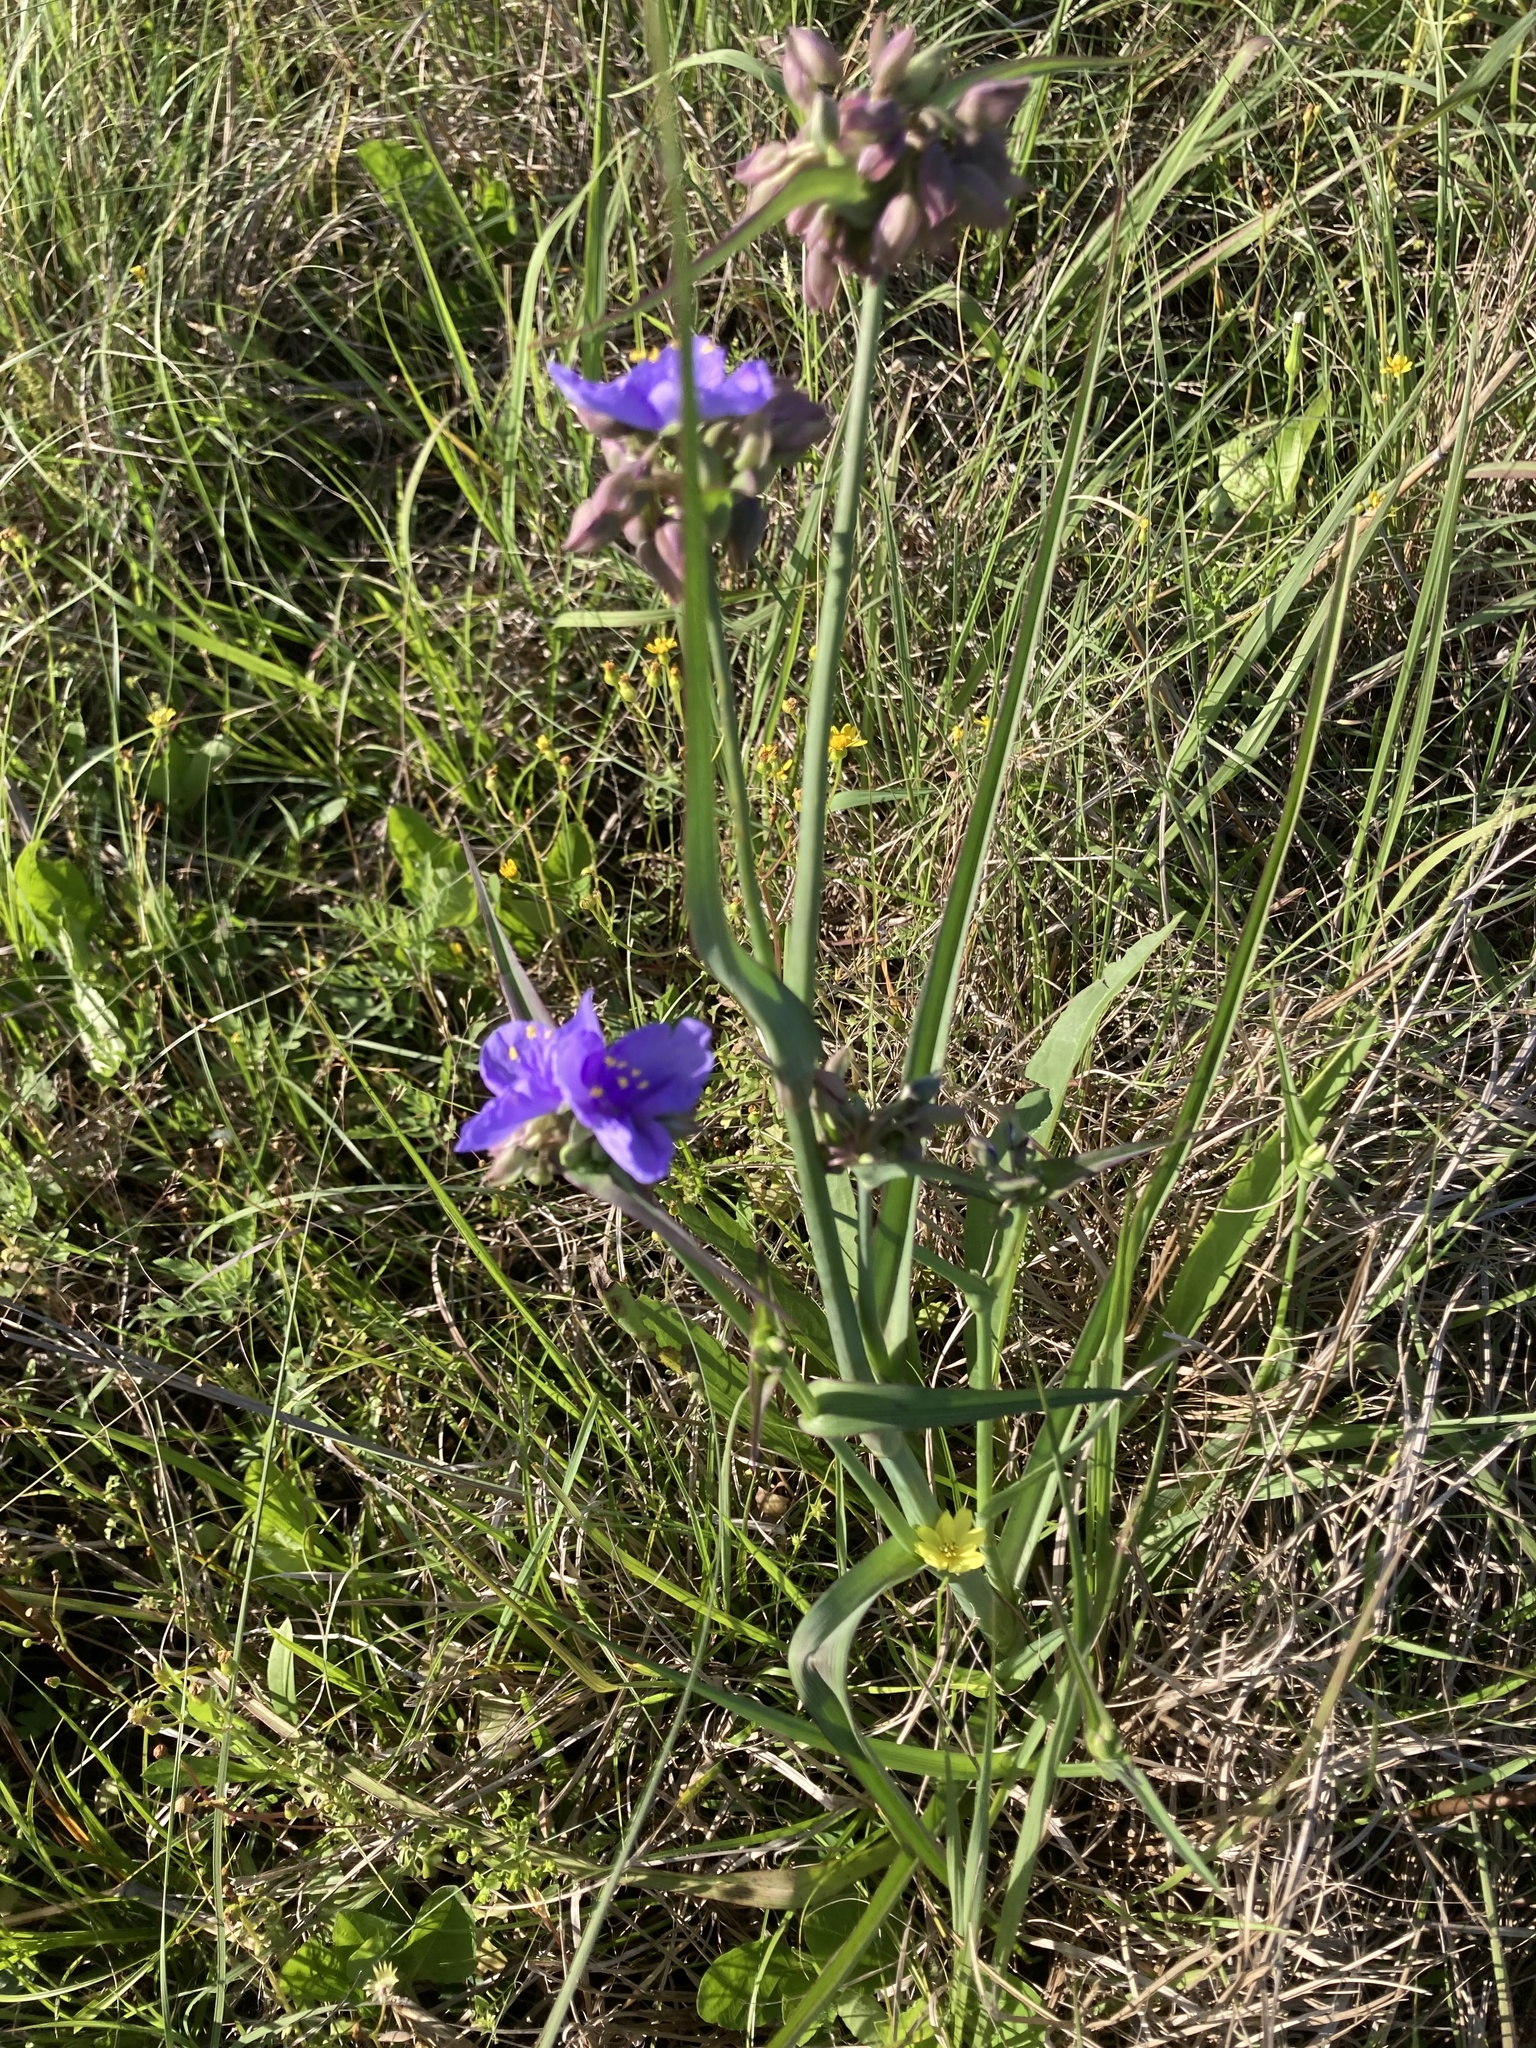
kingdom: Plantae
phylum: Tracheophyta
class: Liliopsida
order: Commelinales
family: Commelinaceae
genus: Tradescantia
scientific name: Tradescantia ohiensis
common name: Ohio spiderwort
